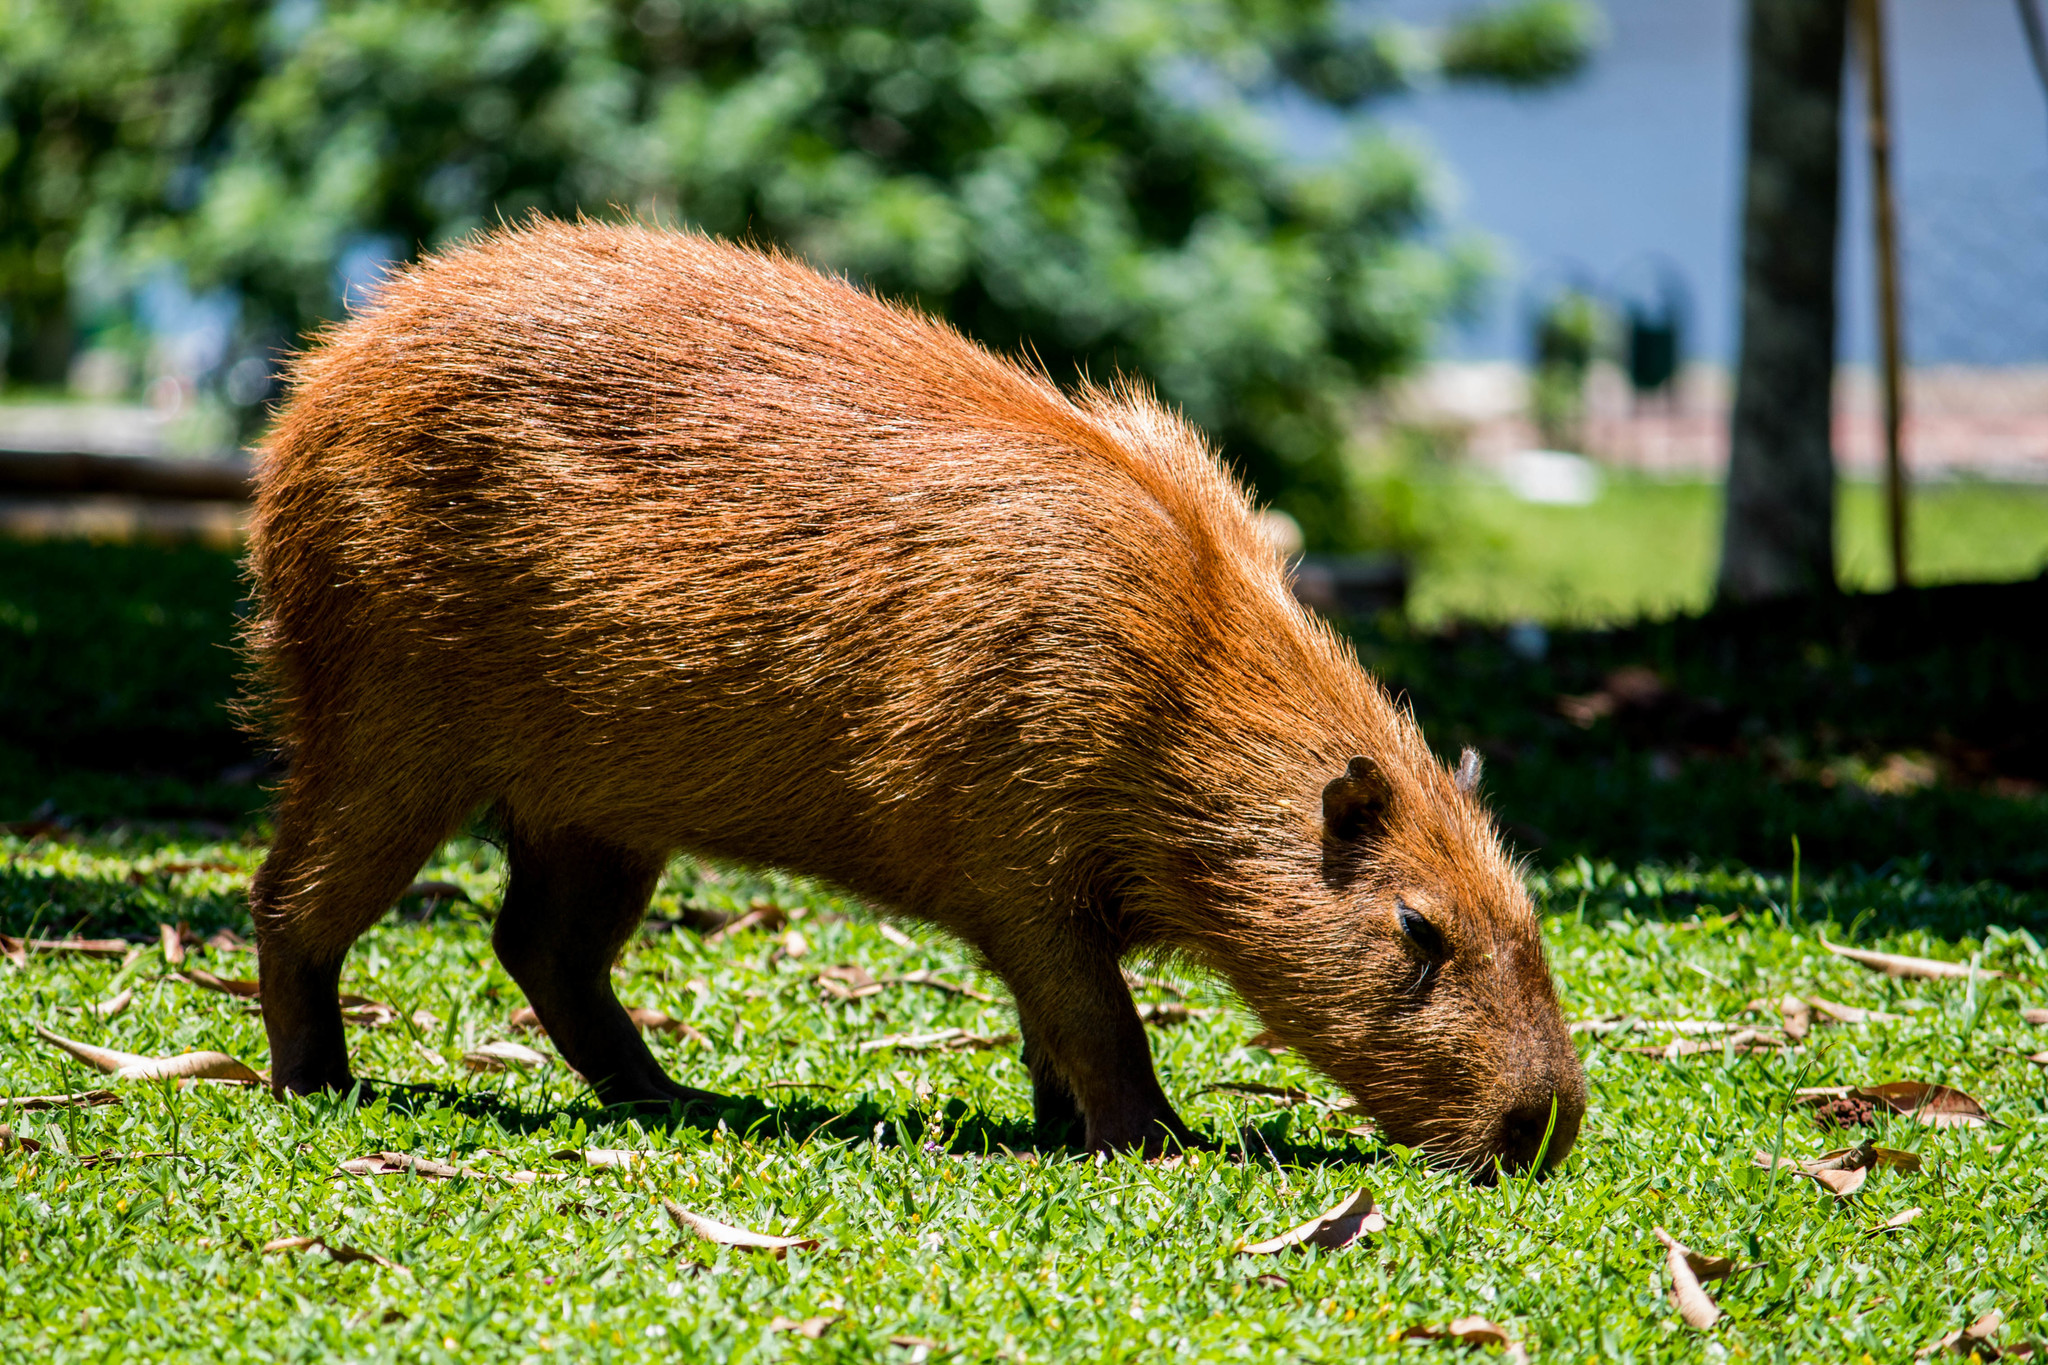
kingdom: Animalia
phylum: Chordata
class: Mammalia
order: Rodentia
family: Caviidae
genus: Hydrochoerus
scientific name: Hydrochoerus hydrochaeris
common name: Capybara
